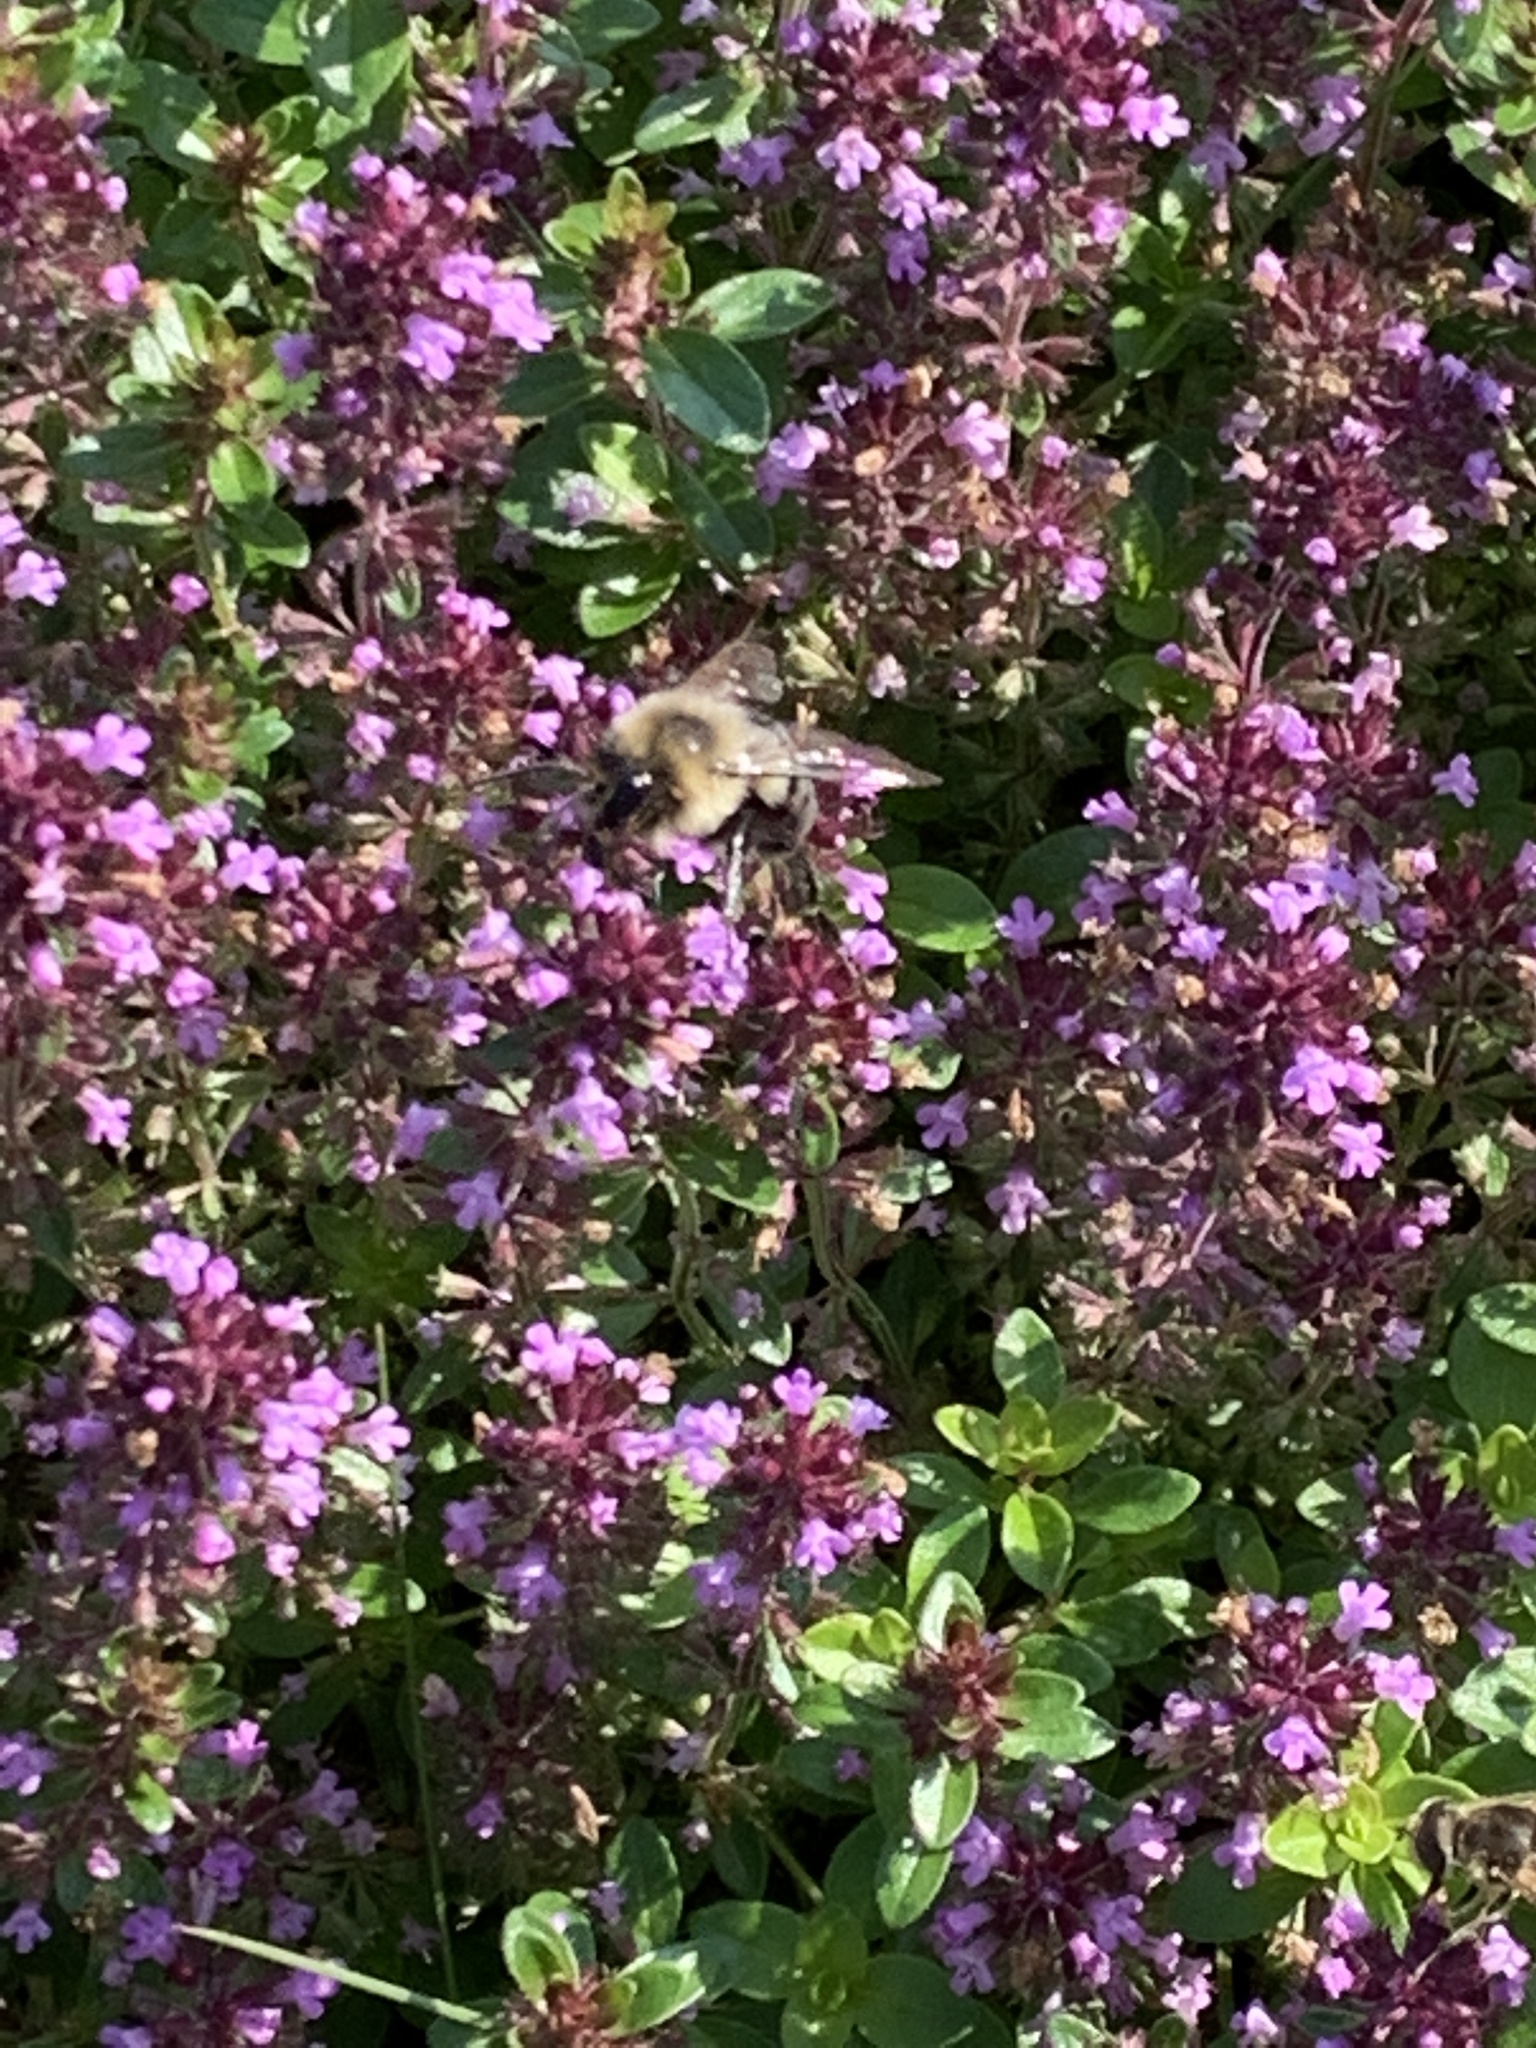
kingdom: Animalia
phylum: Arthropoda
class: Insecta
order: Hymenoptera
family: Apidae
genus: Bombus
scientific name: Bombus impatiens
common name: Common eastern bumble bee
